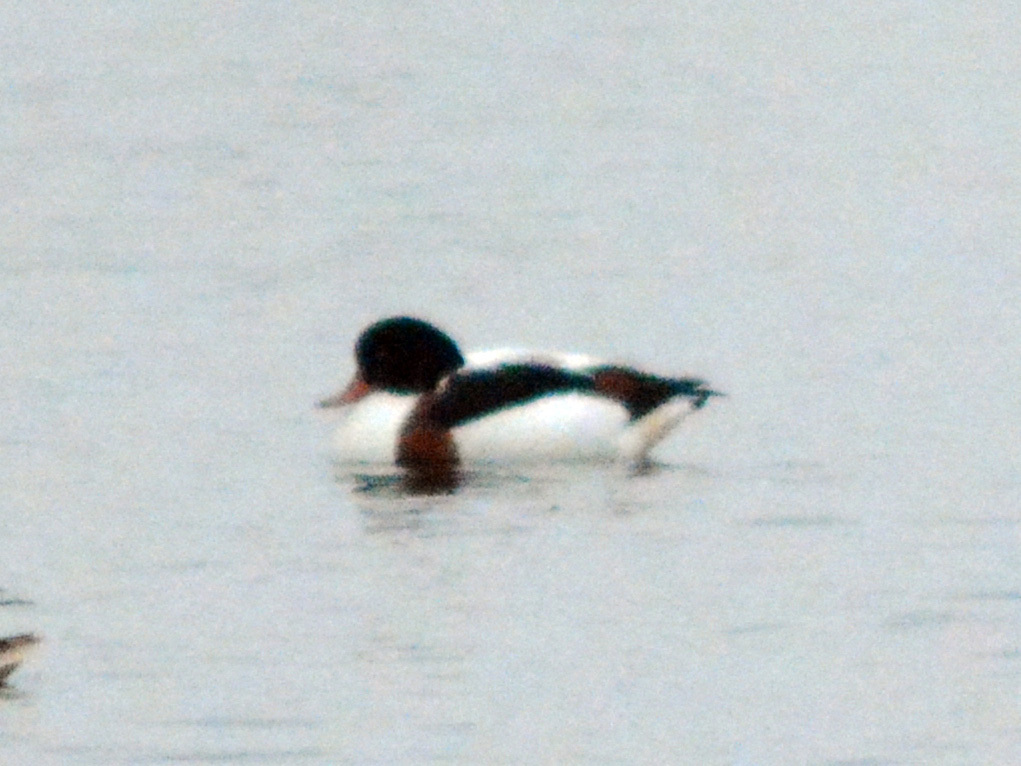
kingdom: Animalia
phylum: Chordata
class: Aves
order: Anseriformes
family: Anatidae
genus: Tadorna
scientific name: Tadorna tadorna
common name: Common shelduck
